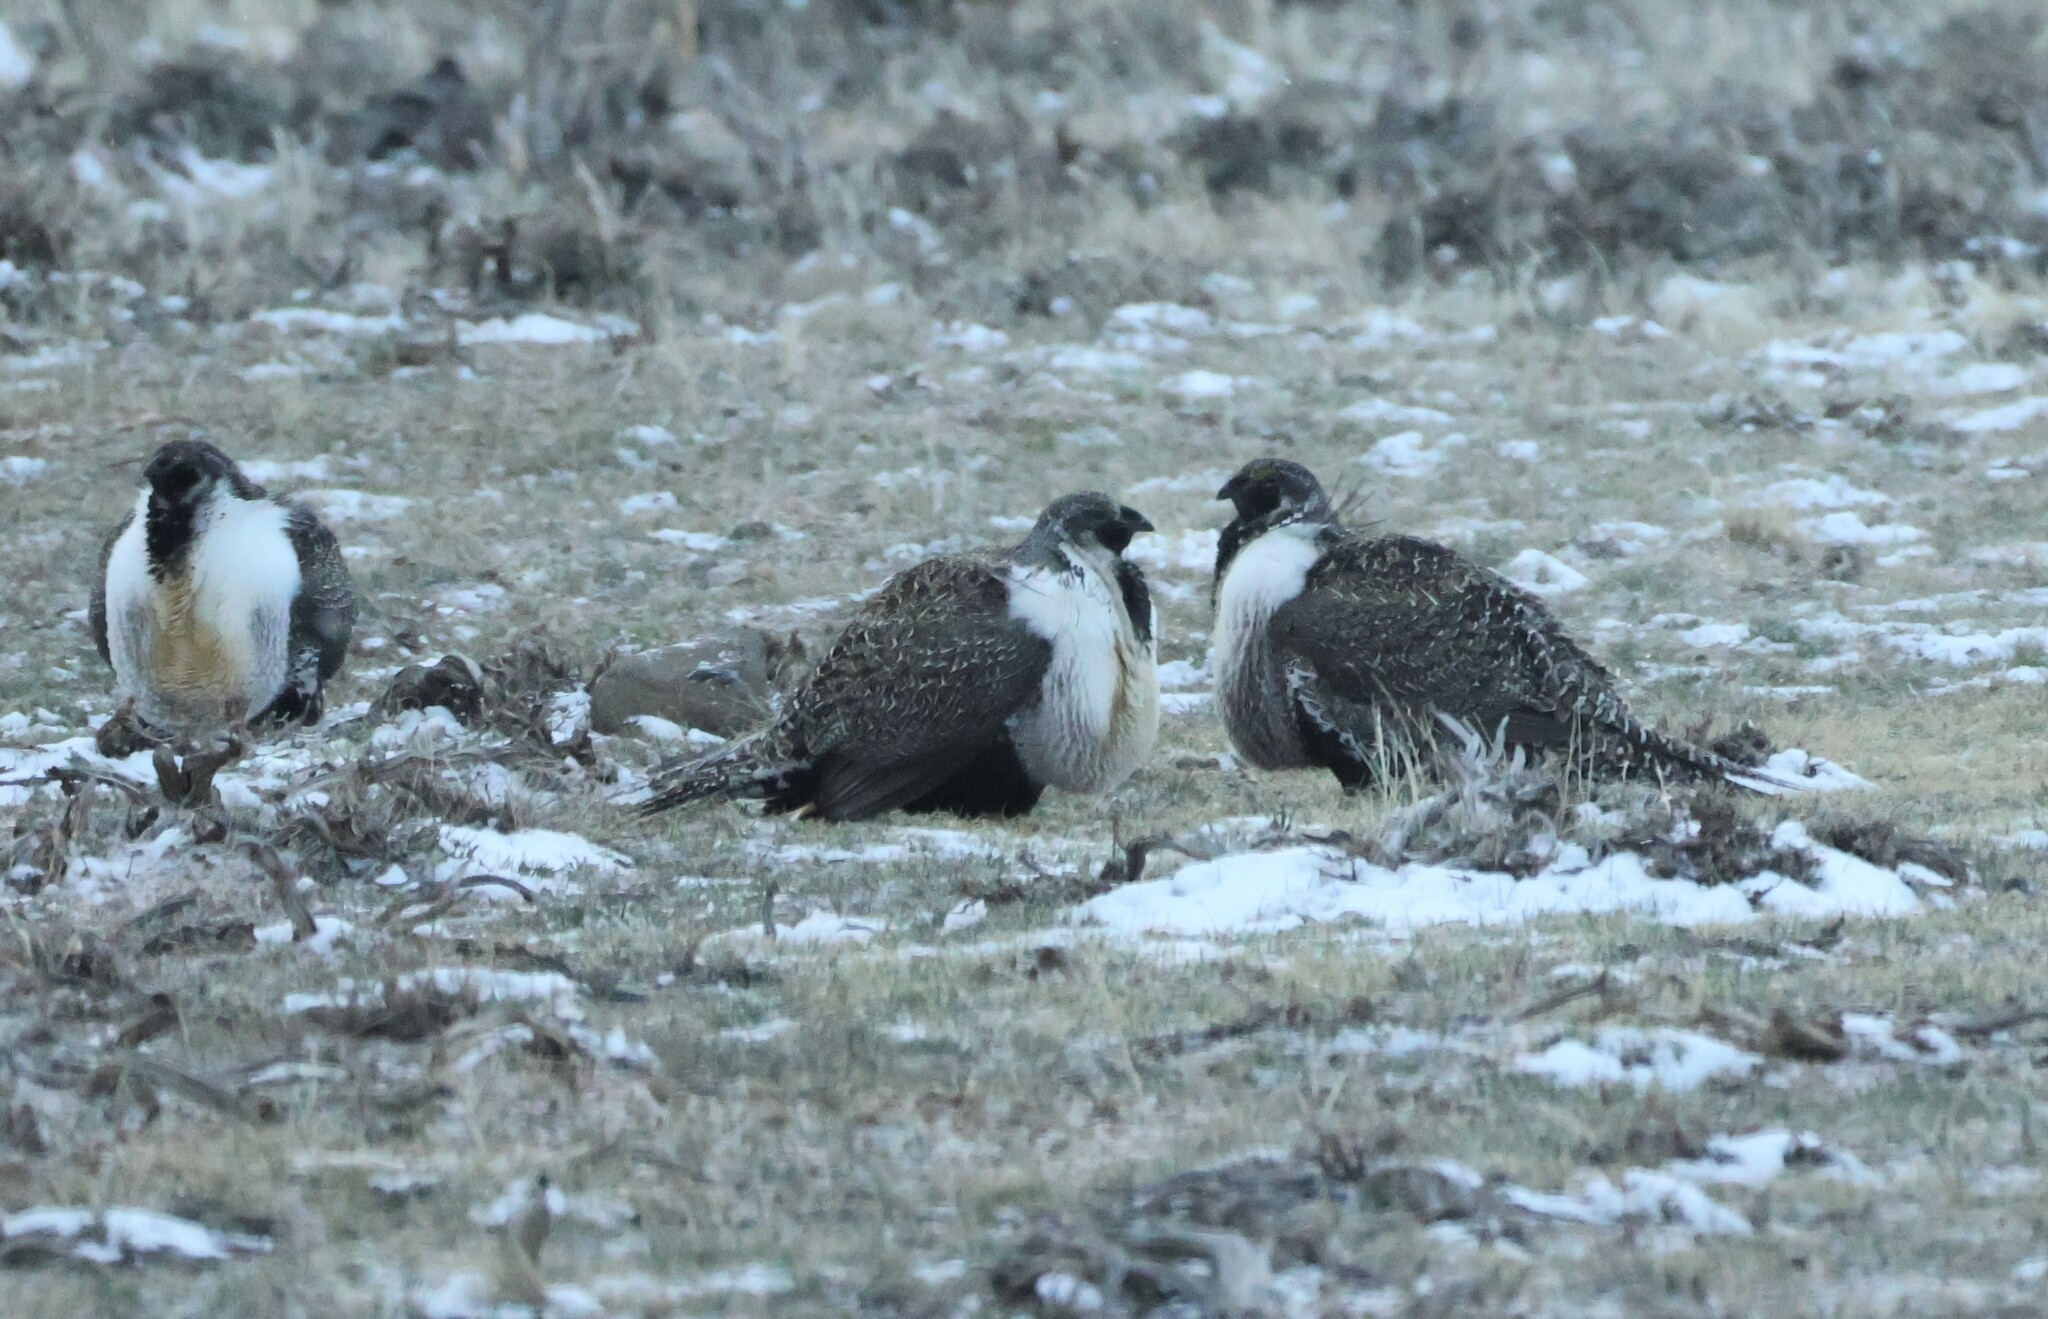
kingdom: Animalia
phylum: Chordata
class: Aves
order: Galliformes
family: Phasianidae
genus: Centrocercus
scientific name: Centrocercus urophasianus
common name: Sage grouse
